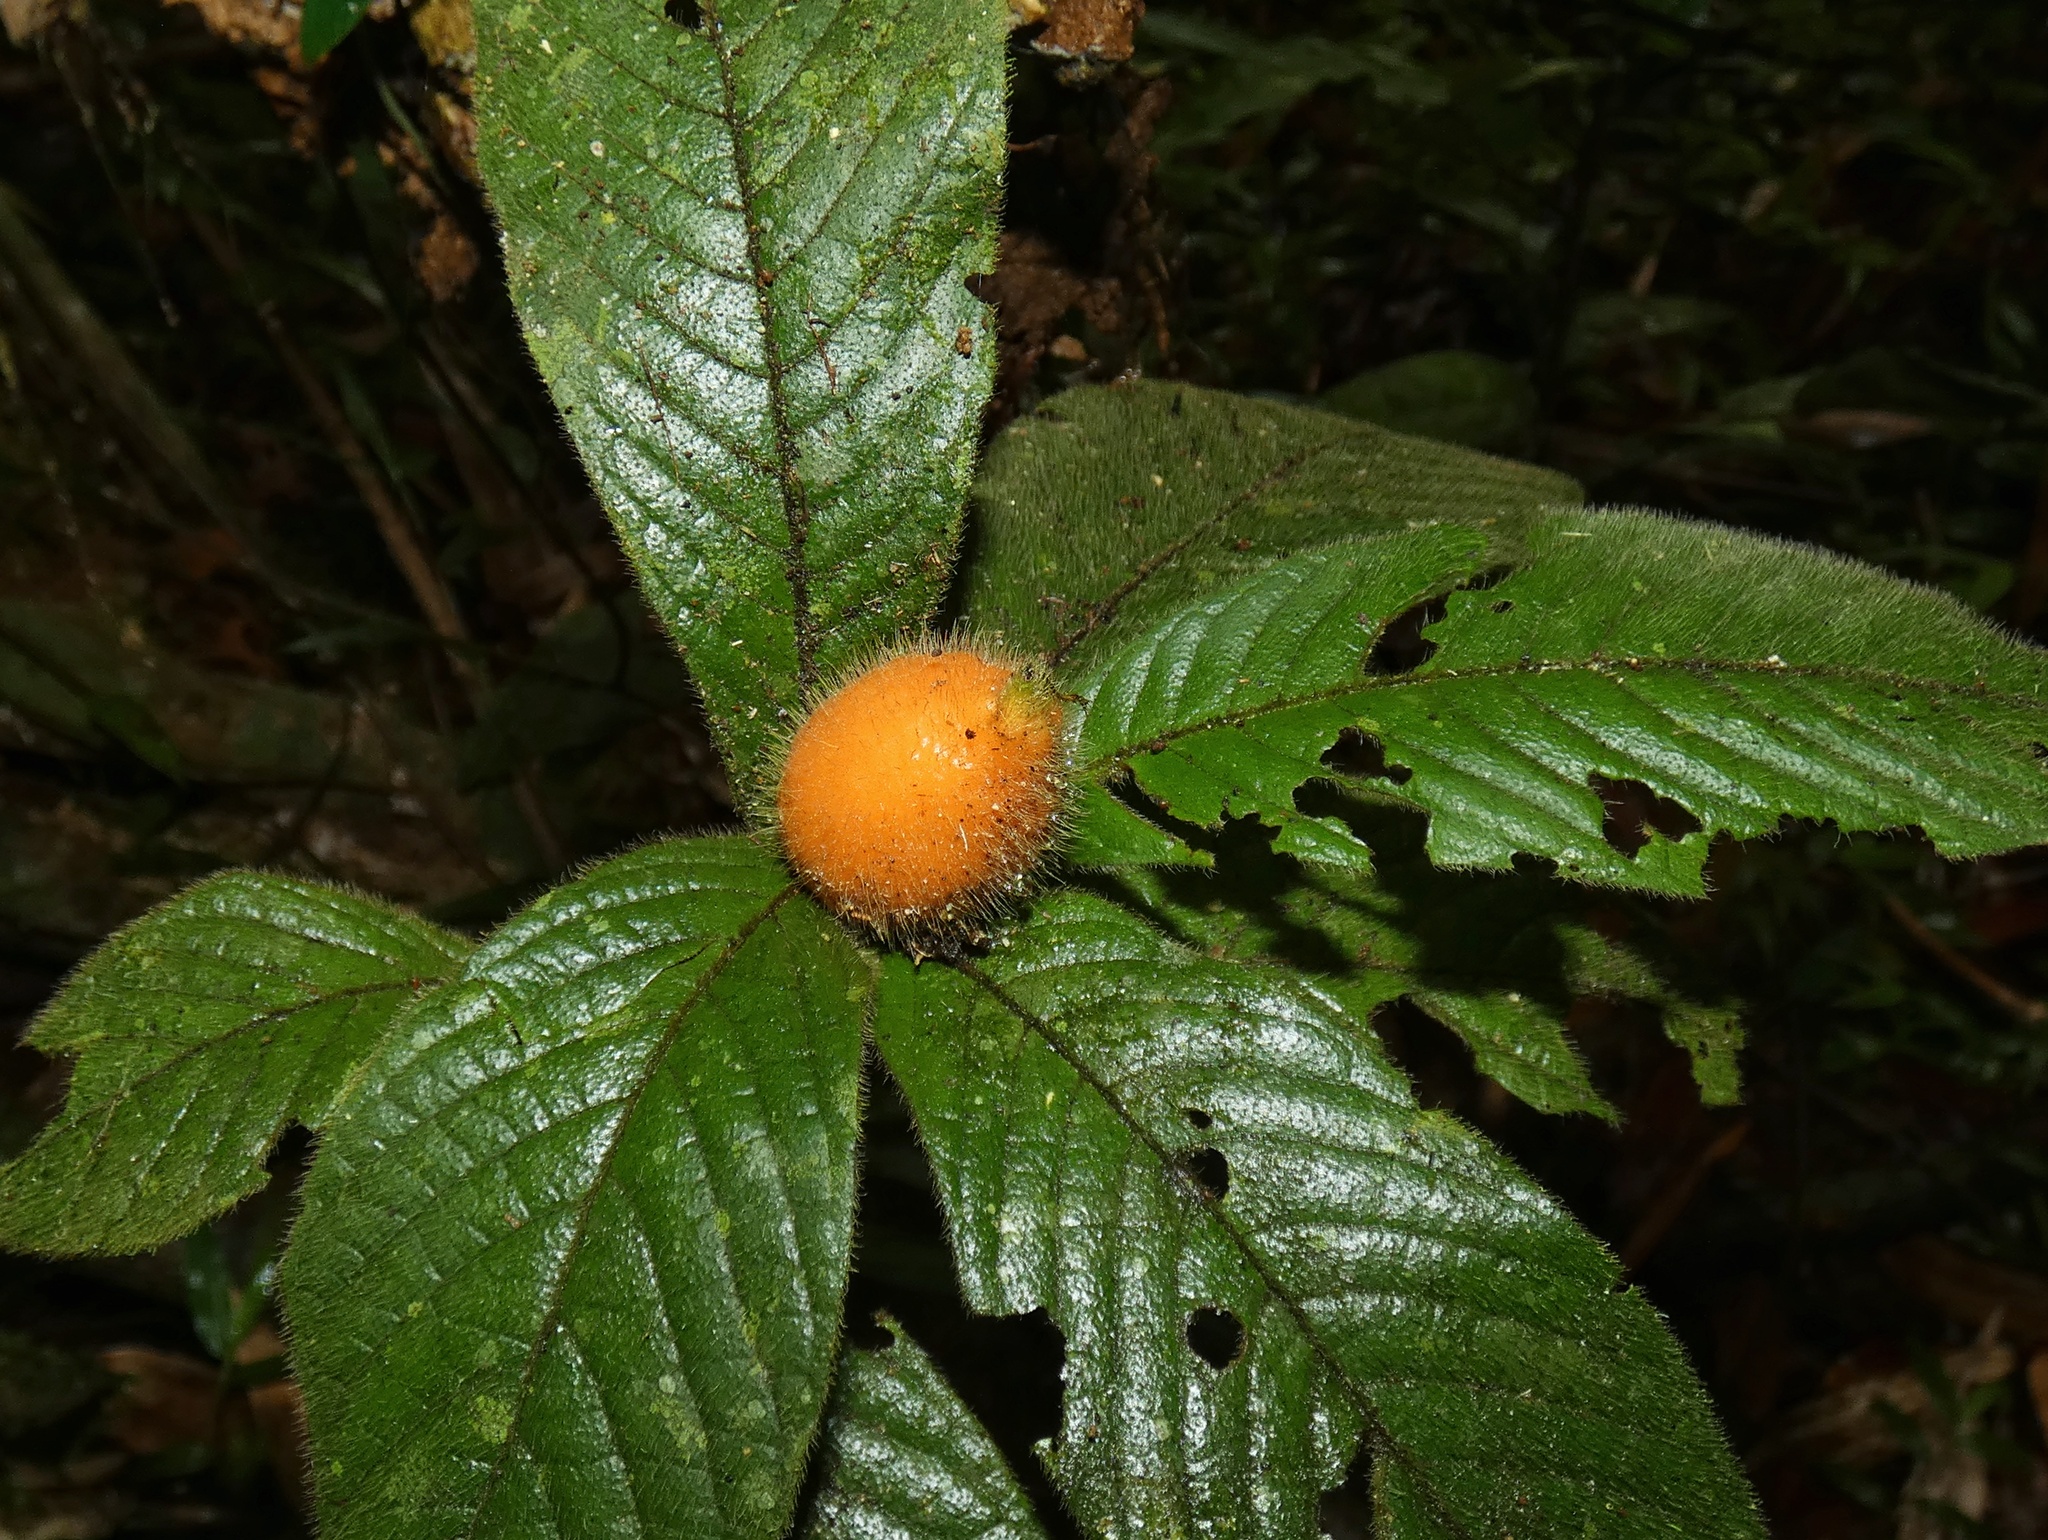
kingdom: Plantae
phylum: Tracheophyta
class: Magnoliopsida
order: Gentianales
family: Rubiaceae
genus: Atractocarpus
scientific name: Atractocarpus hirtus
